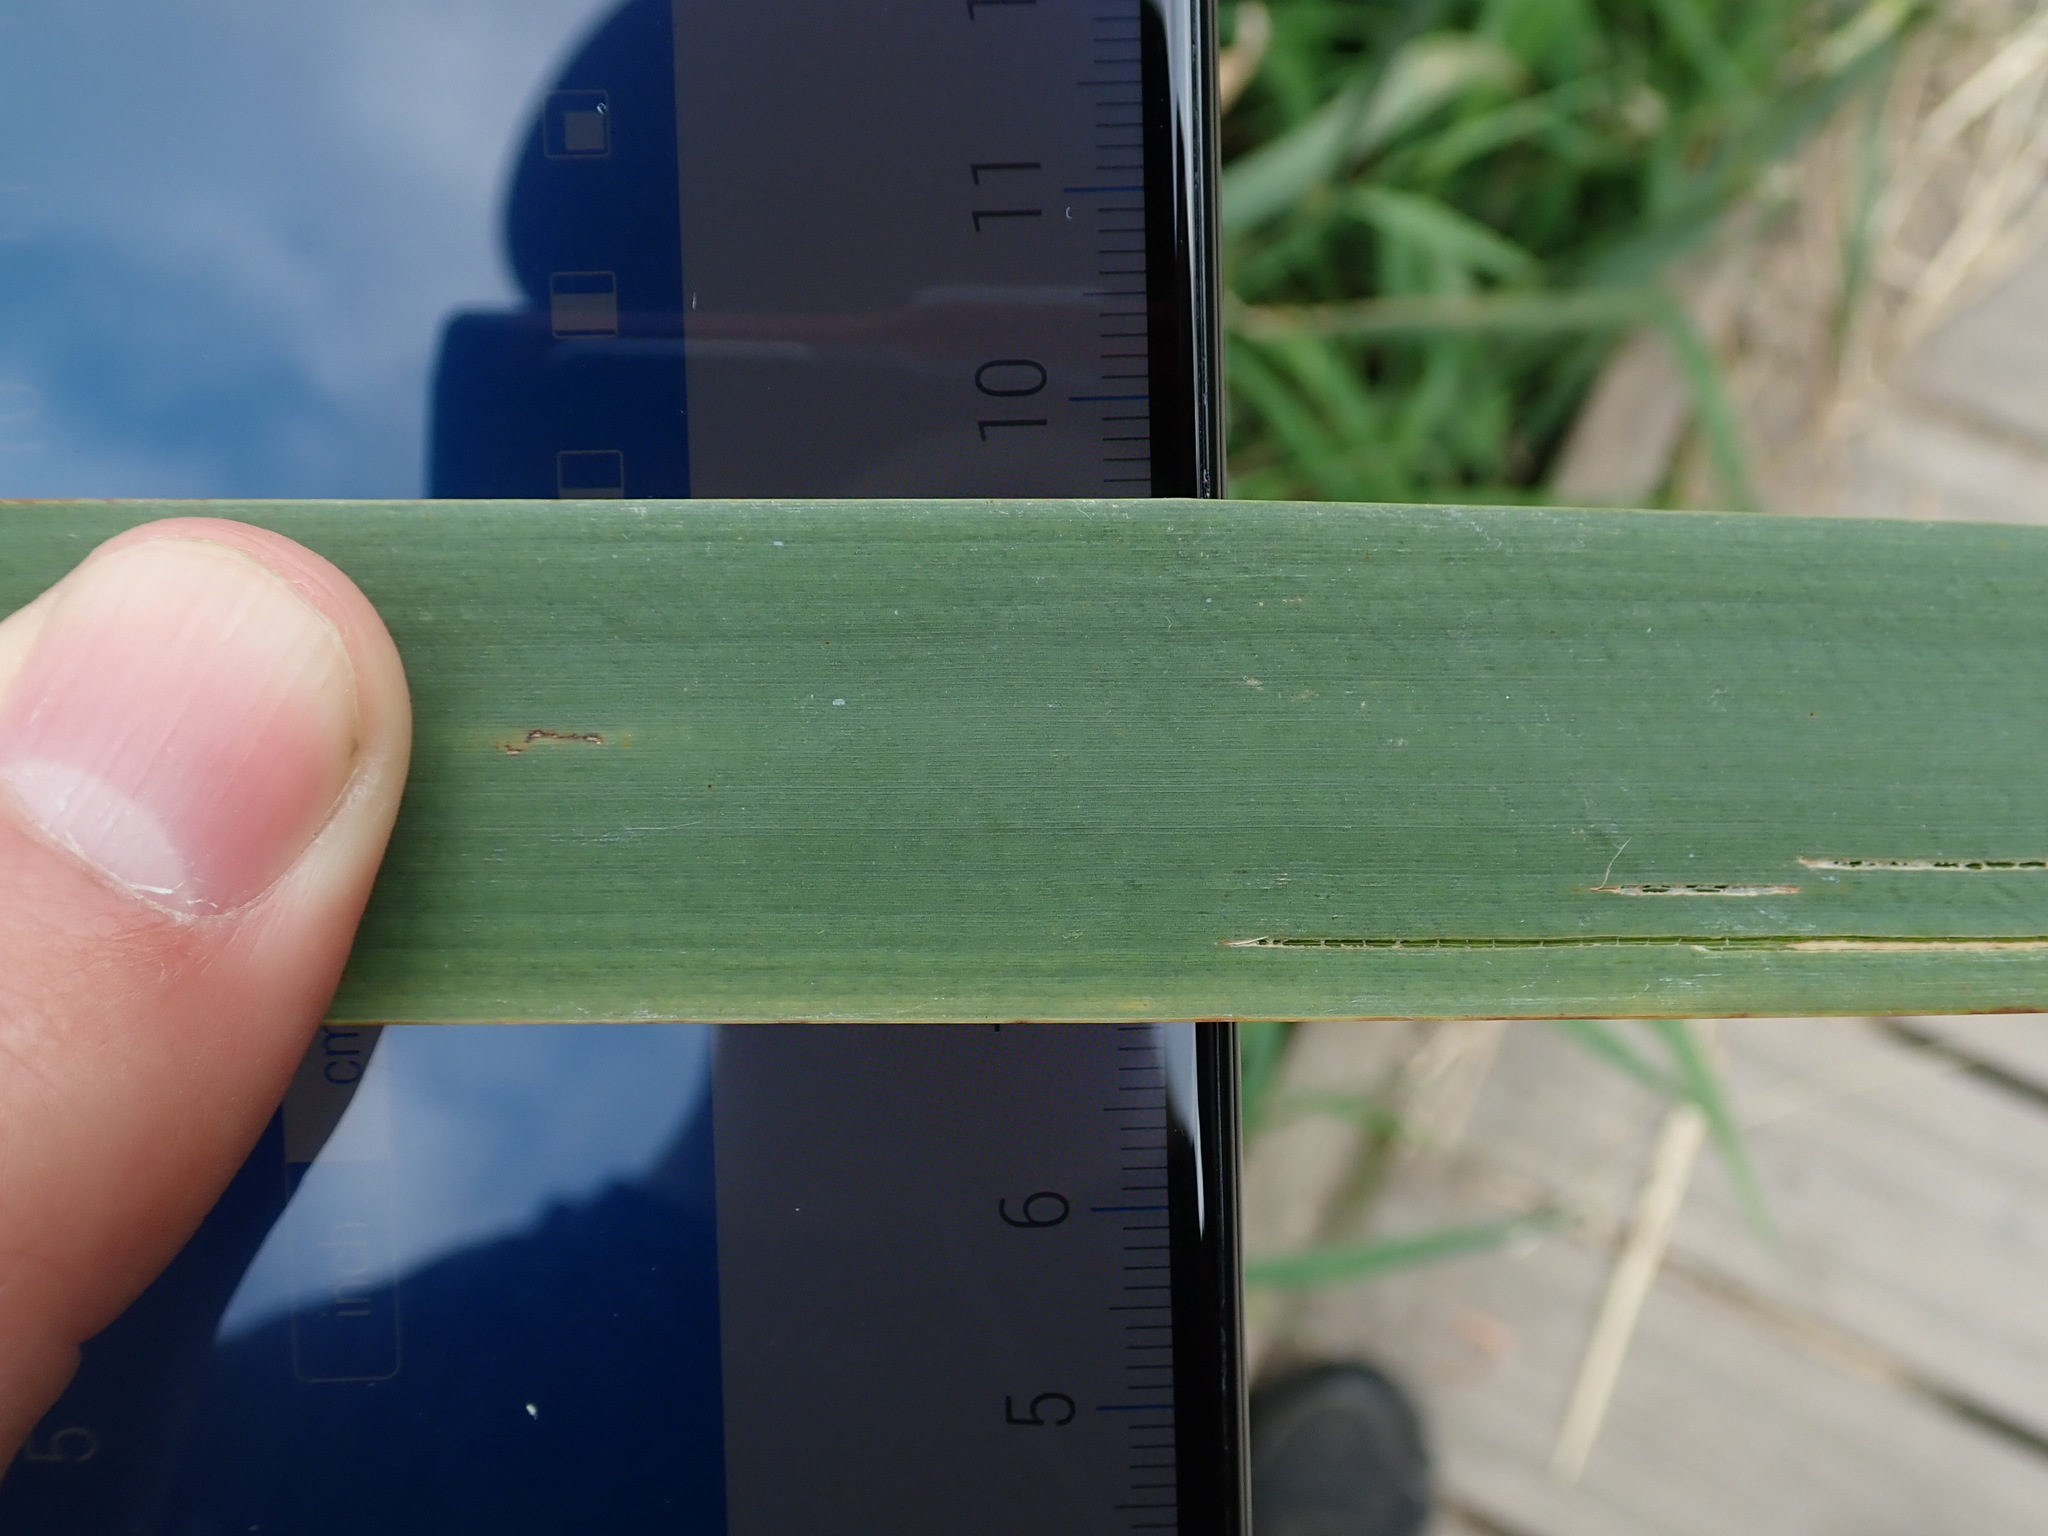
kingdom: Plantae
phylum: Tracheophyta
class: Liliopsida
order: Poales
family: Typhaceae
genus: Typha
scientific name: Typha latifolia
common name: Broadleaf cattail
